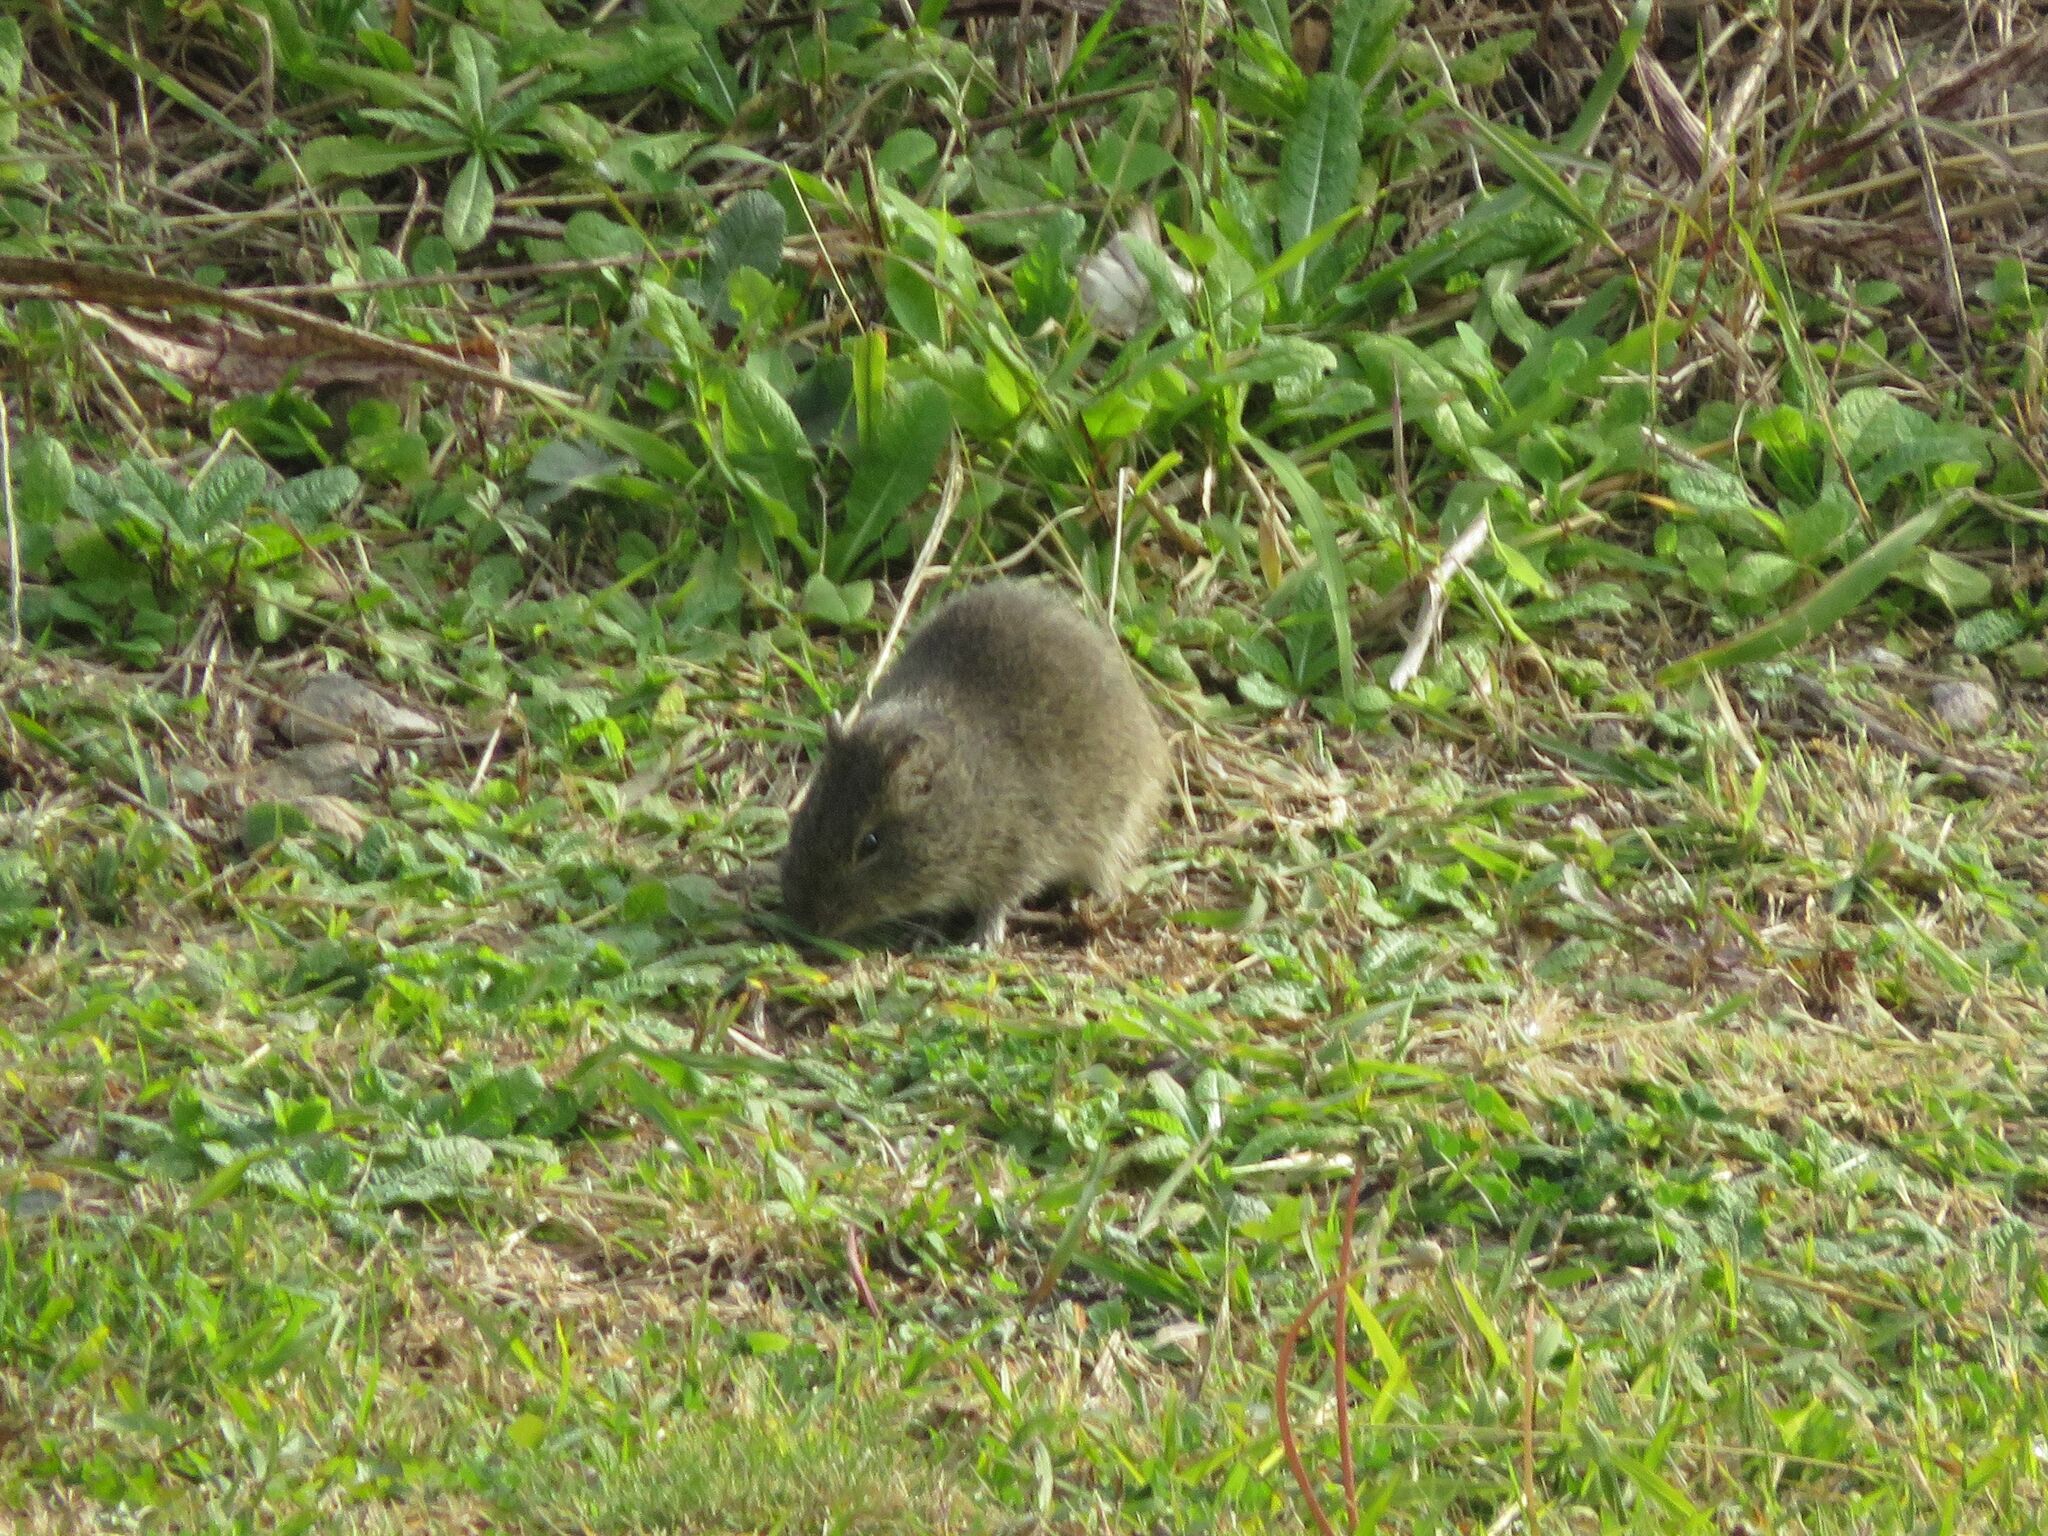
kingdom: Animalia
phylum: Chordata
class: Mammalia
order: Rodentia
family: Caviidae
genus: Cavia
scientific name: Cavia aperea
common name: Brazilian guinea pig
